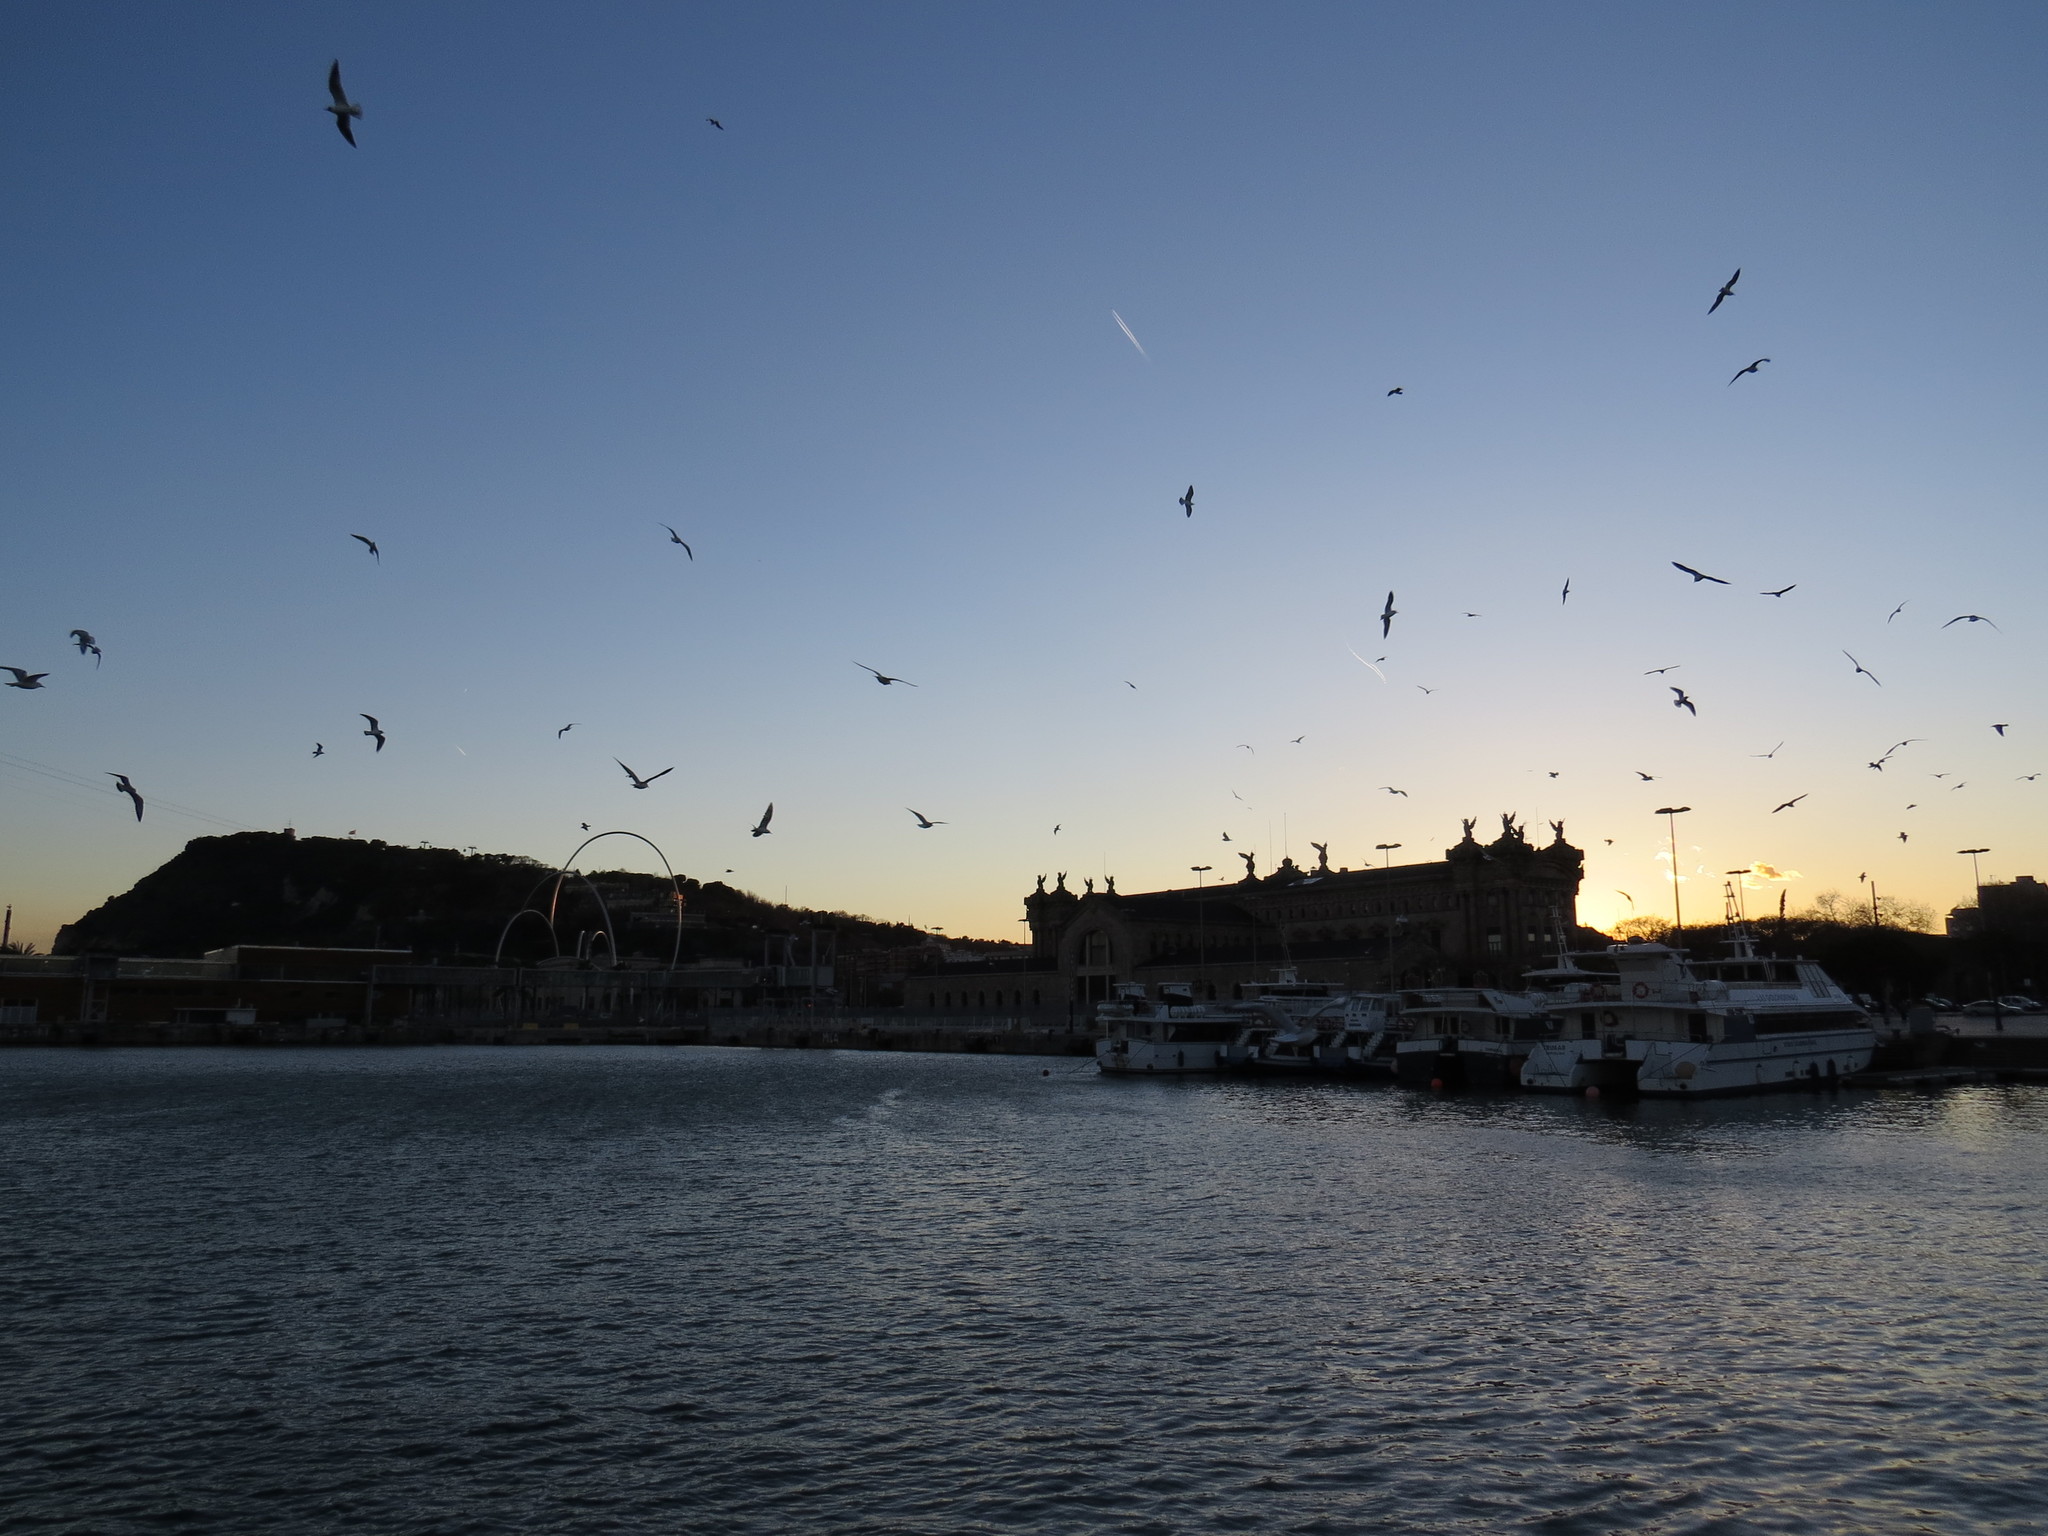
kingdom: Animalia
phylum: Chordata
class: Aves
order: Charadriiformes
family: Laridae
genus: Larus
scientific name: Larus michahellis
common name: Yellow-legged gull
